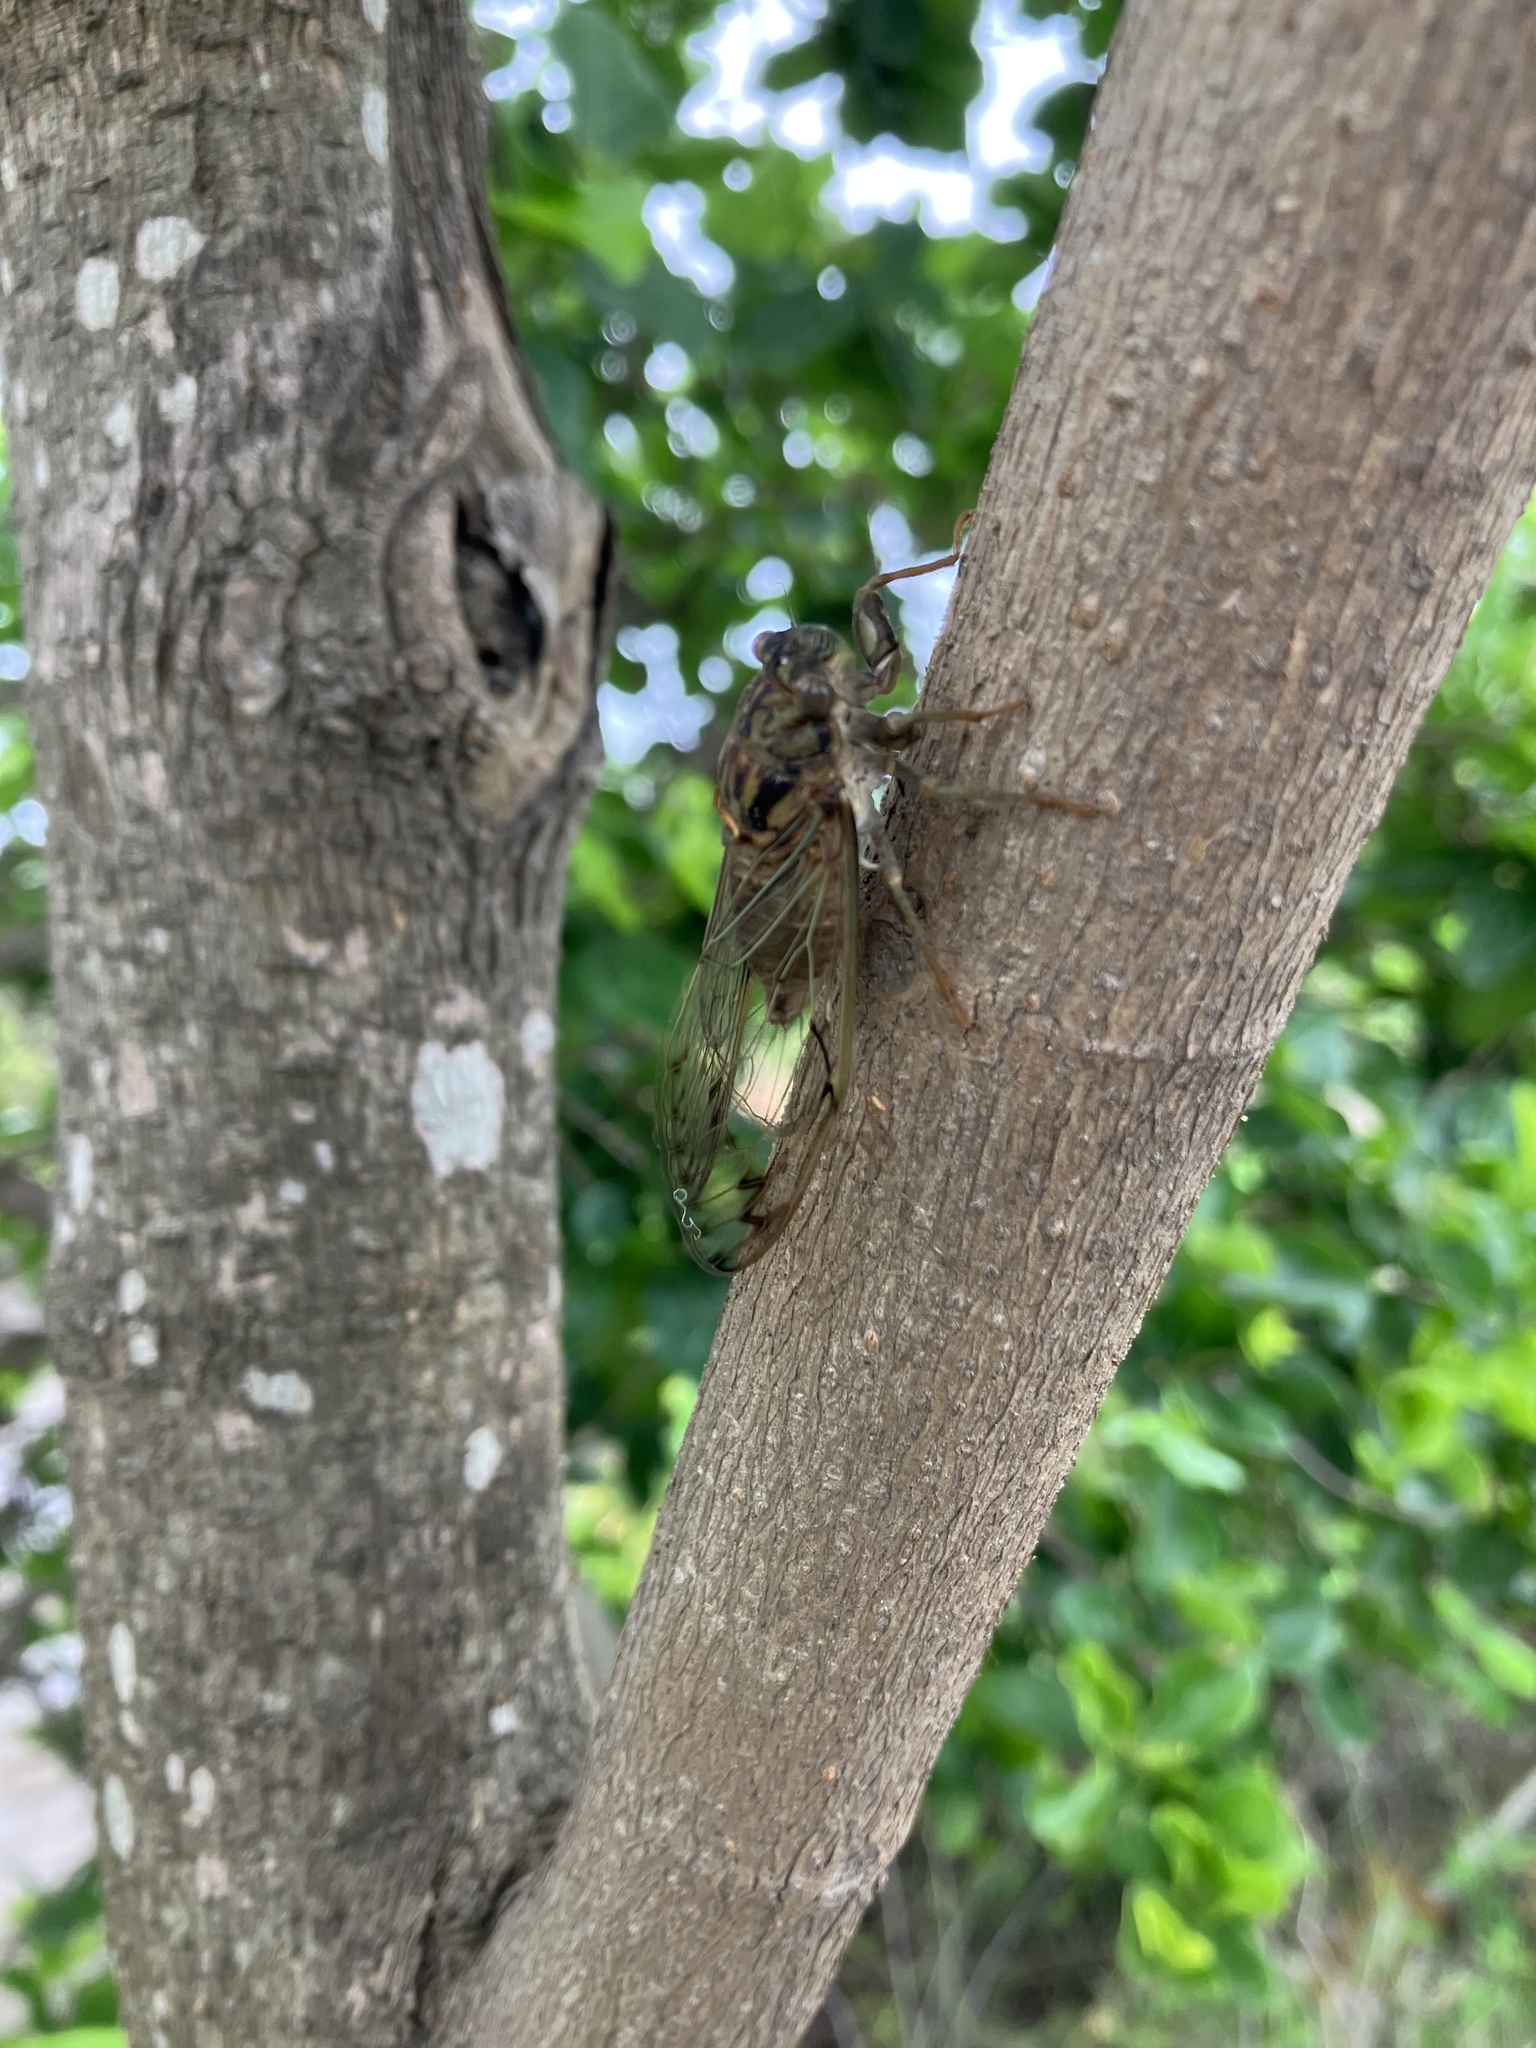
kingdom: Animalia
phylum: Arthropoda
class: Insecta
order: Hemiptera
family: Cicadidae
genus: Taiwanosemia
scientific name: Taiwanosemia hoppoensis
